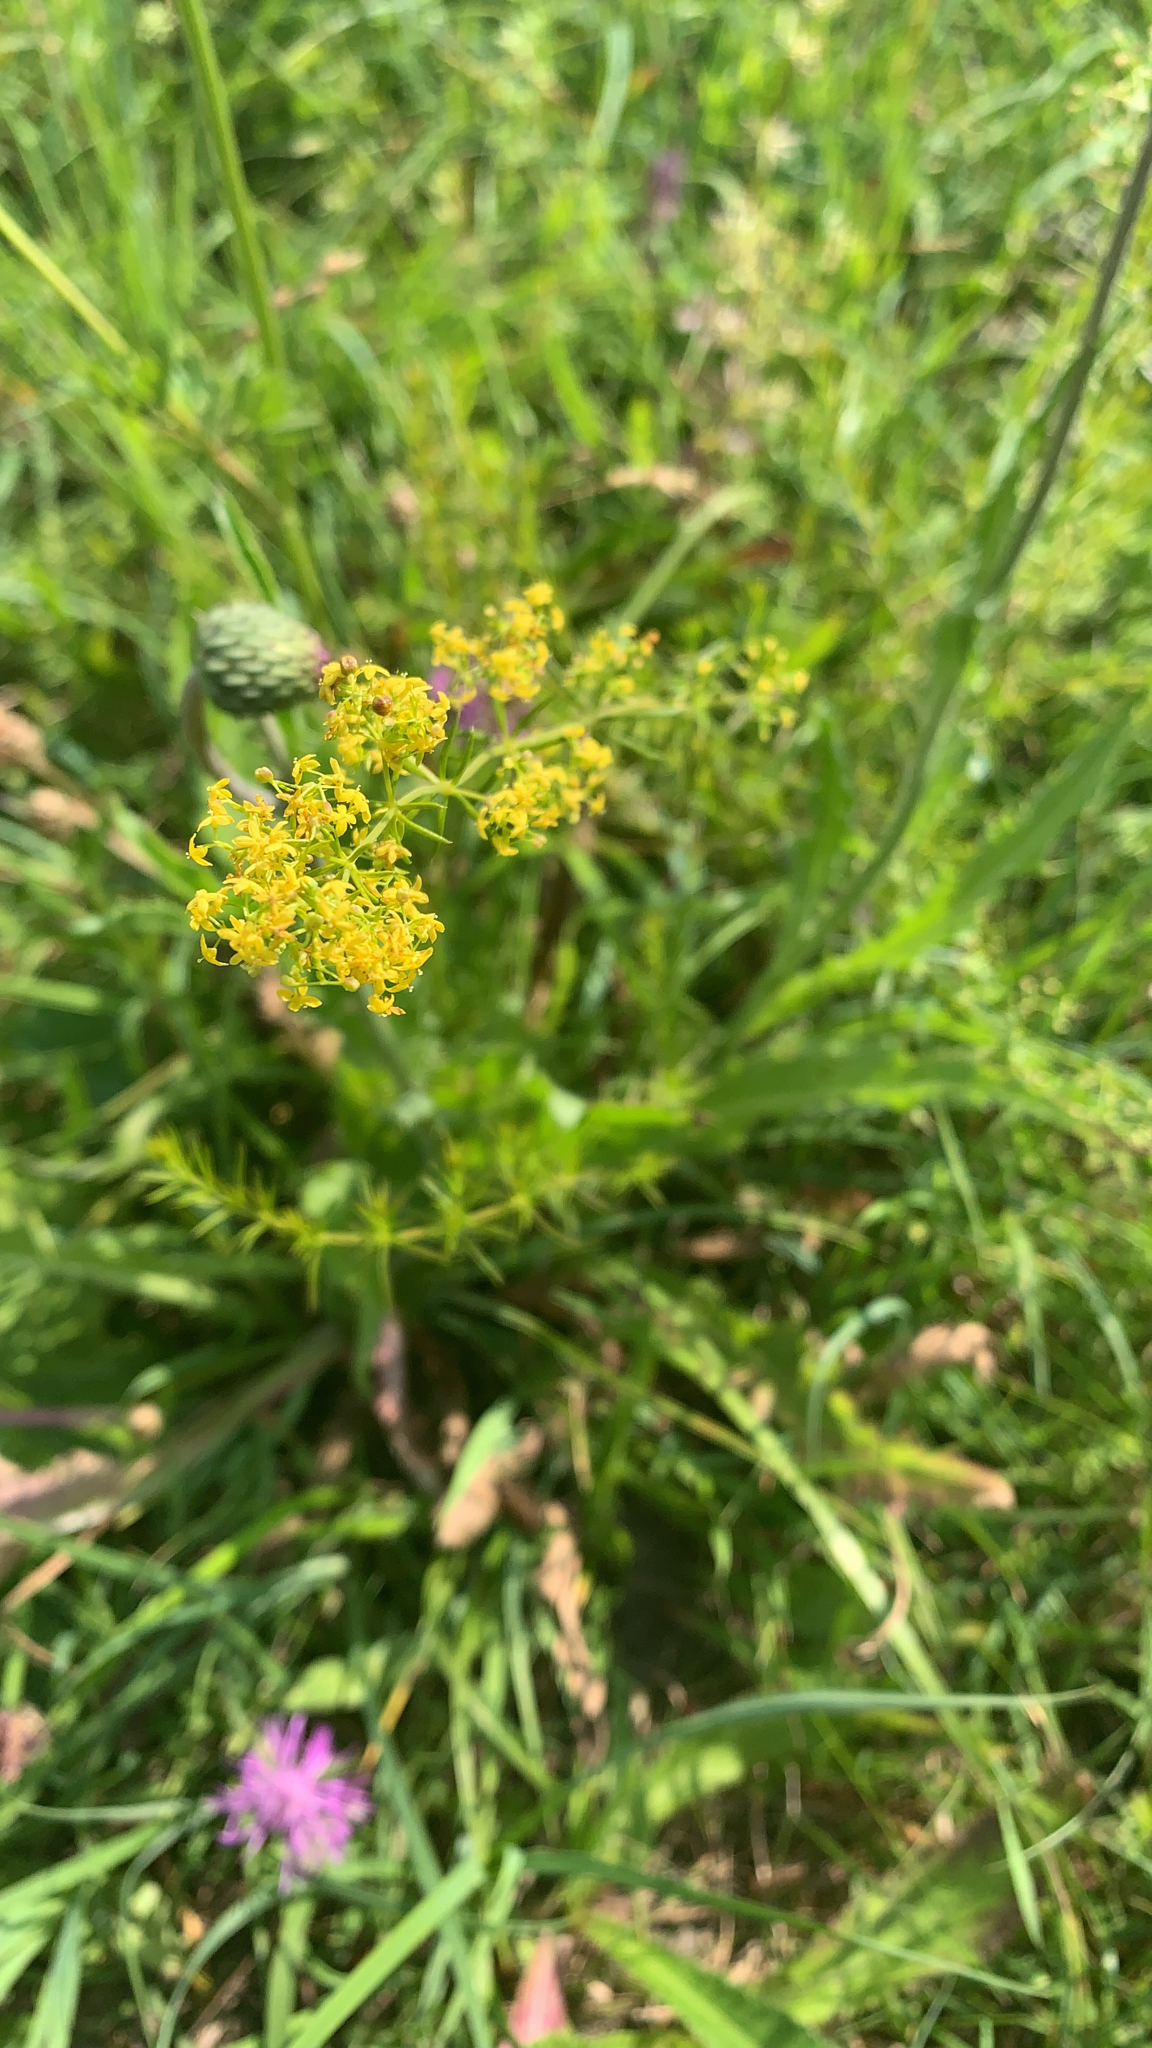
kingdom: Plantae
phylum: Tracheophyta
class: Magnoliopsida
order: Gentianales
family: Rubiaceae
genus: Galium
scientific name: Galium verum
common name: Lady's bedstraw
